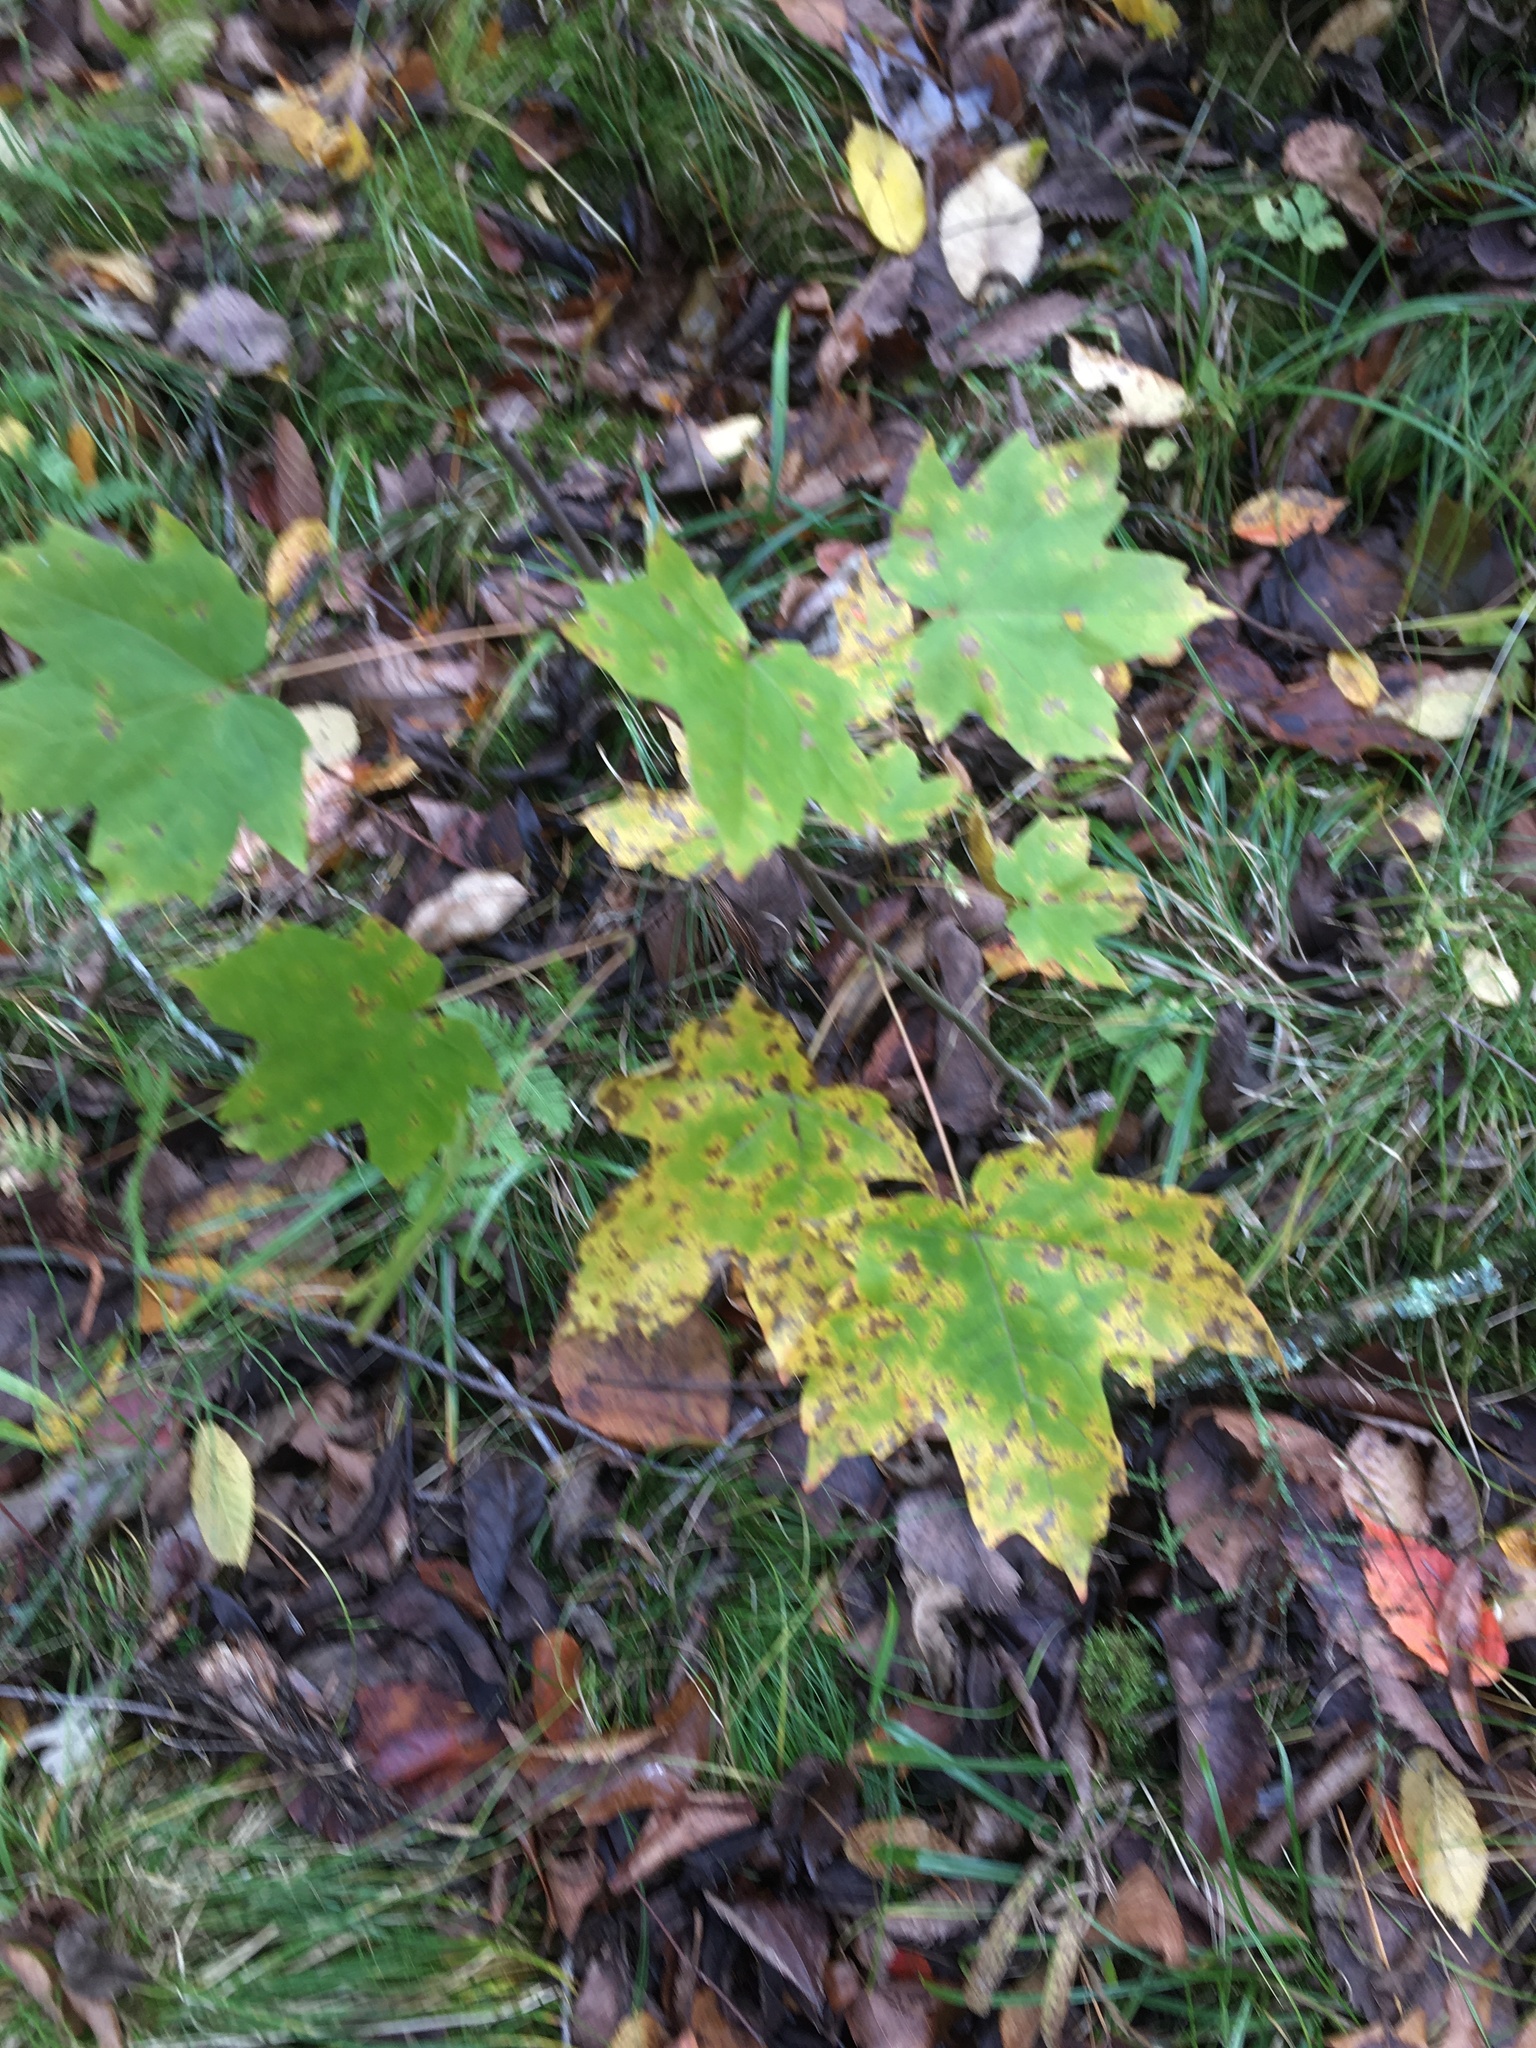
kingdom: Plantae
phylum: Tracheophyta
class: Magnoliopsida
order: Sapindales
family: Sapindaceae
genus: Acer
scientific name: Acer saccharum
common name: Sugar maple
